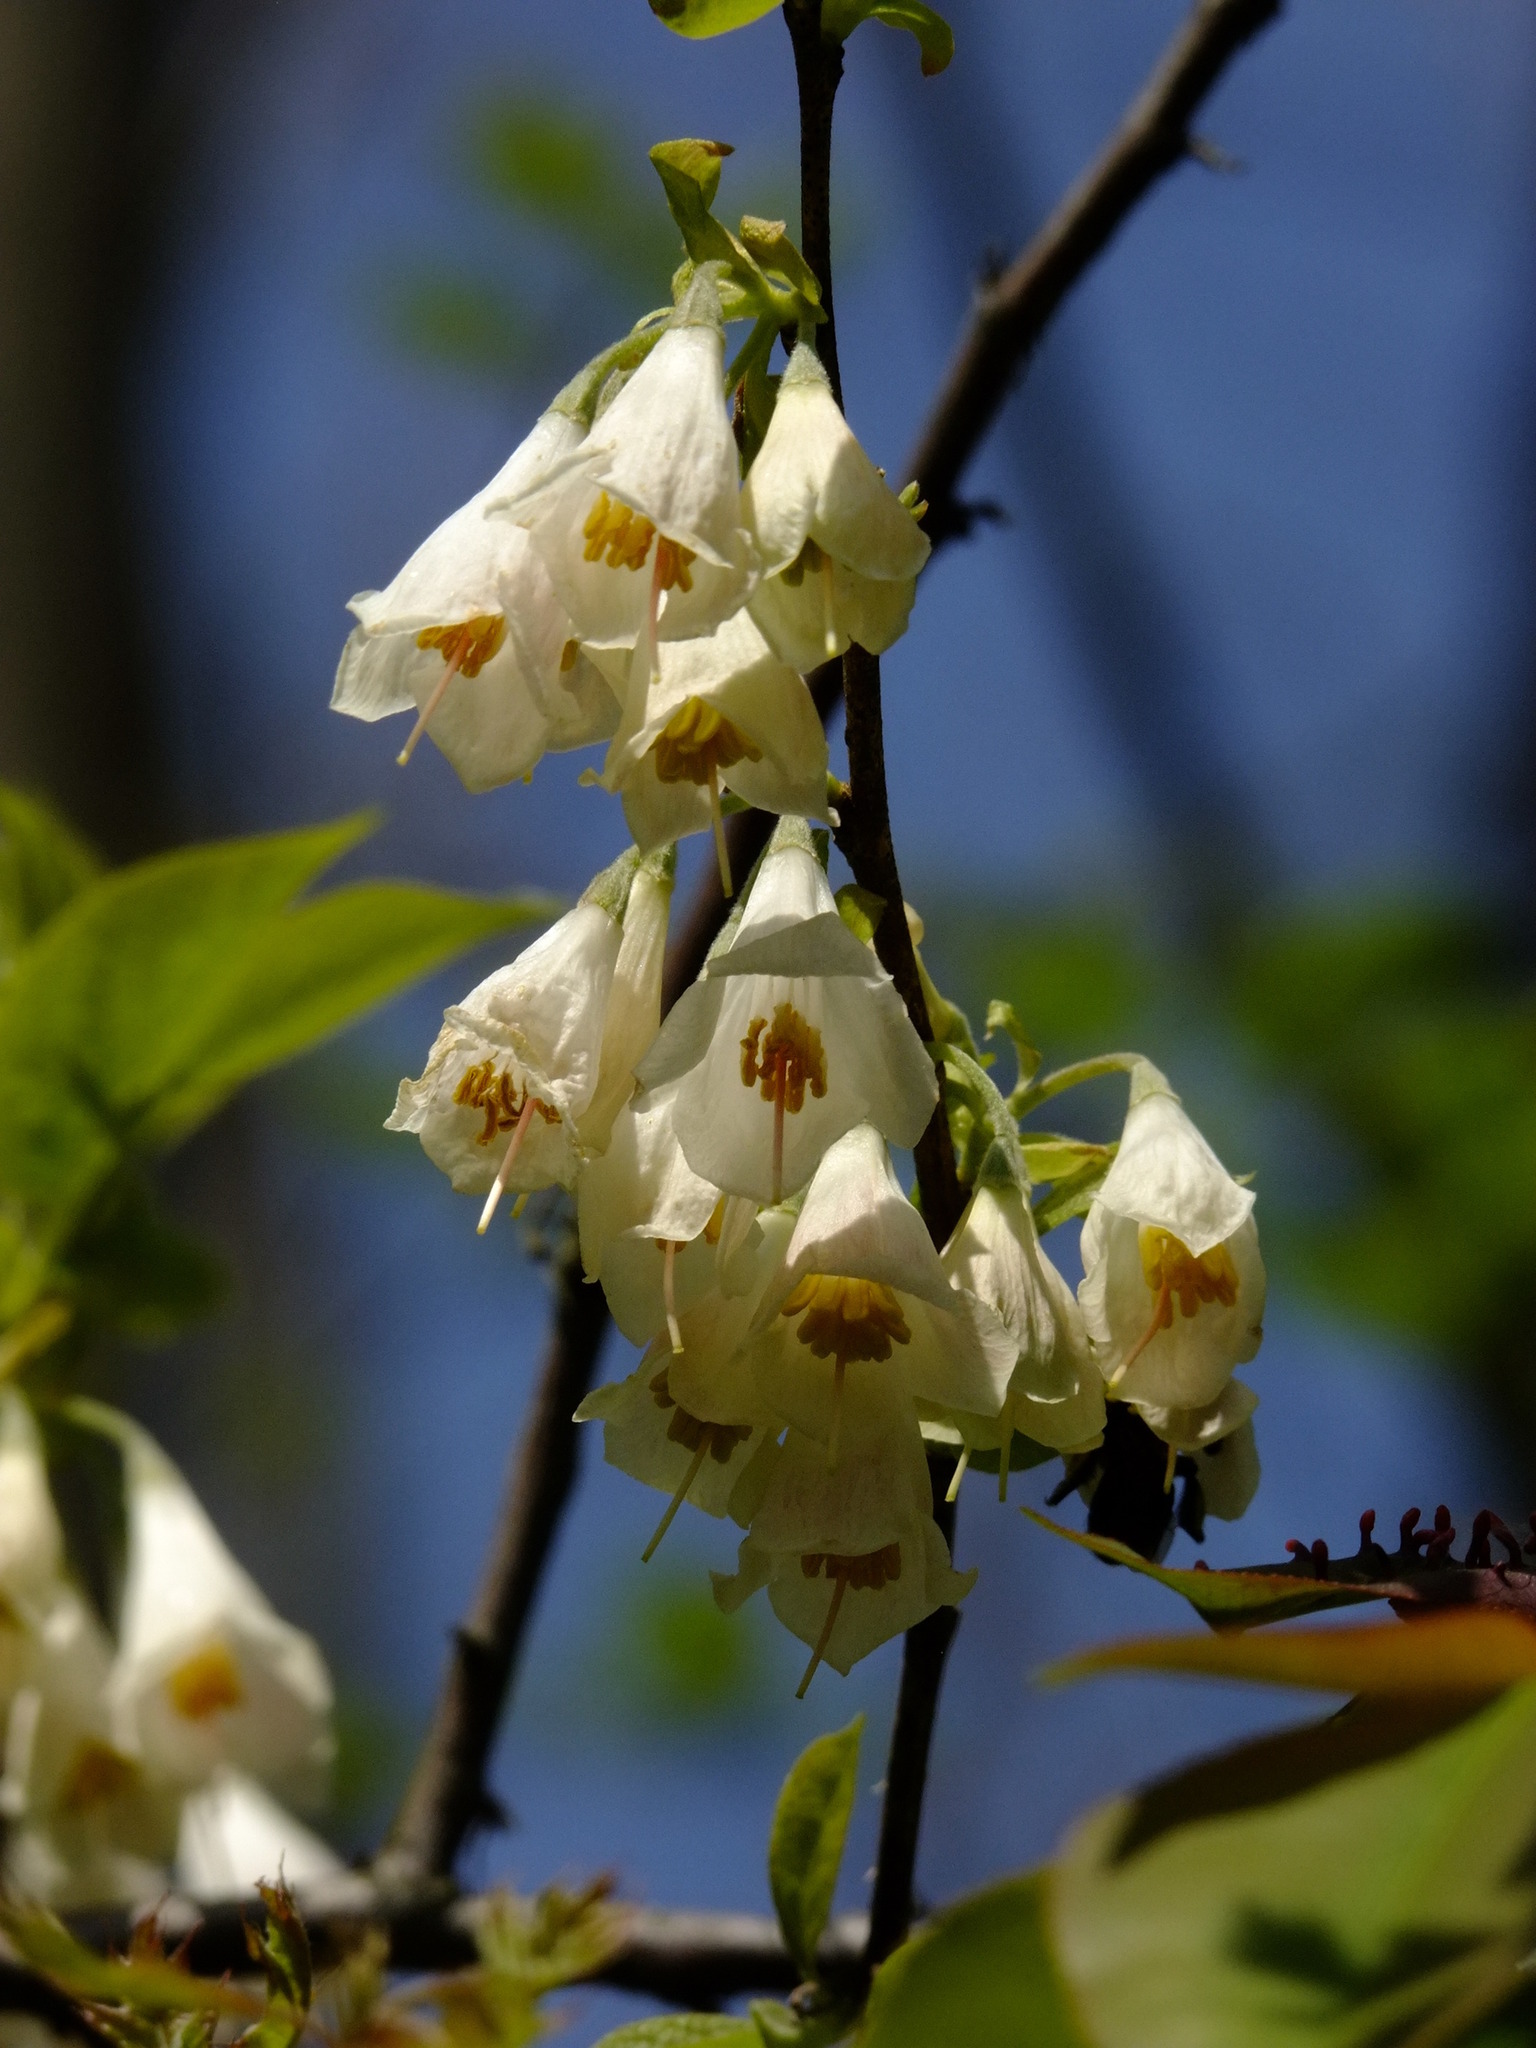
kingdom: Plantae
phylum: Tracheophyta
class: Magnoliopsida
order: Ericales
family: Styracaceae
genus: Halesia
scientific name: Halesia carolina
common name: Carolina silverbell
